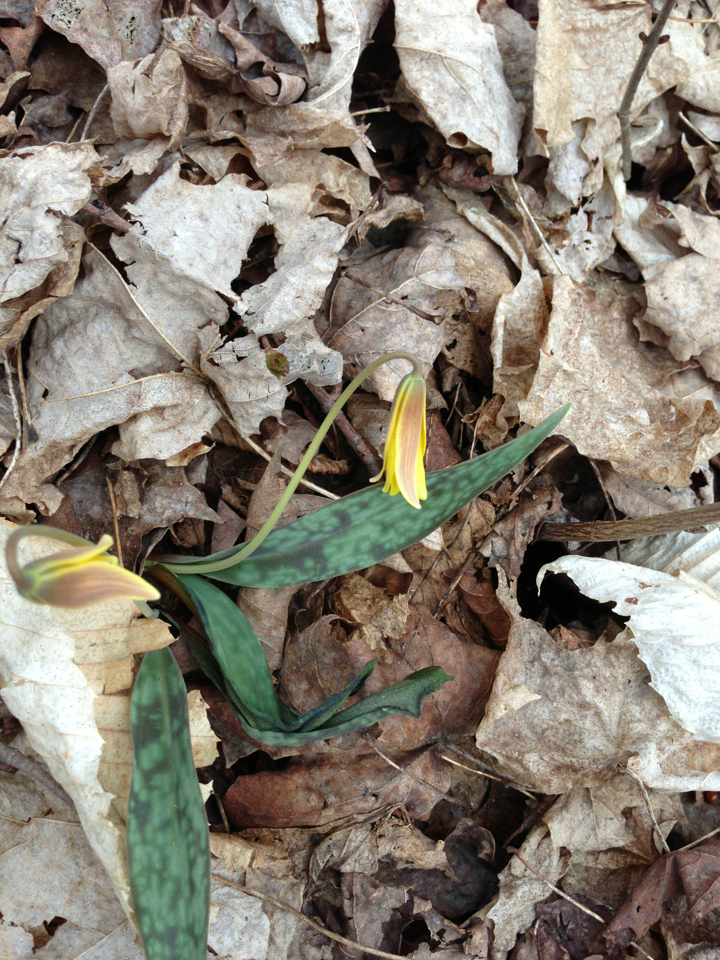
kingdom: Plantae
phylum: Tracheophyta
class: Liliopsida
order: Liliales
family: Liliaceae
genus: Erythronium
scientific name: Erythronium americanum
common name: Yellow adder's-tongue
